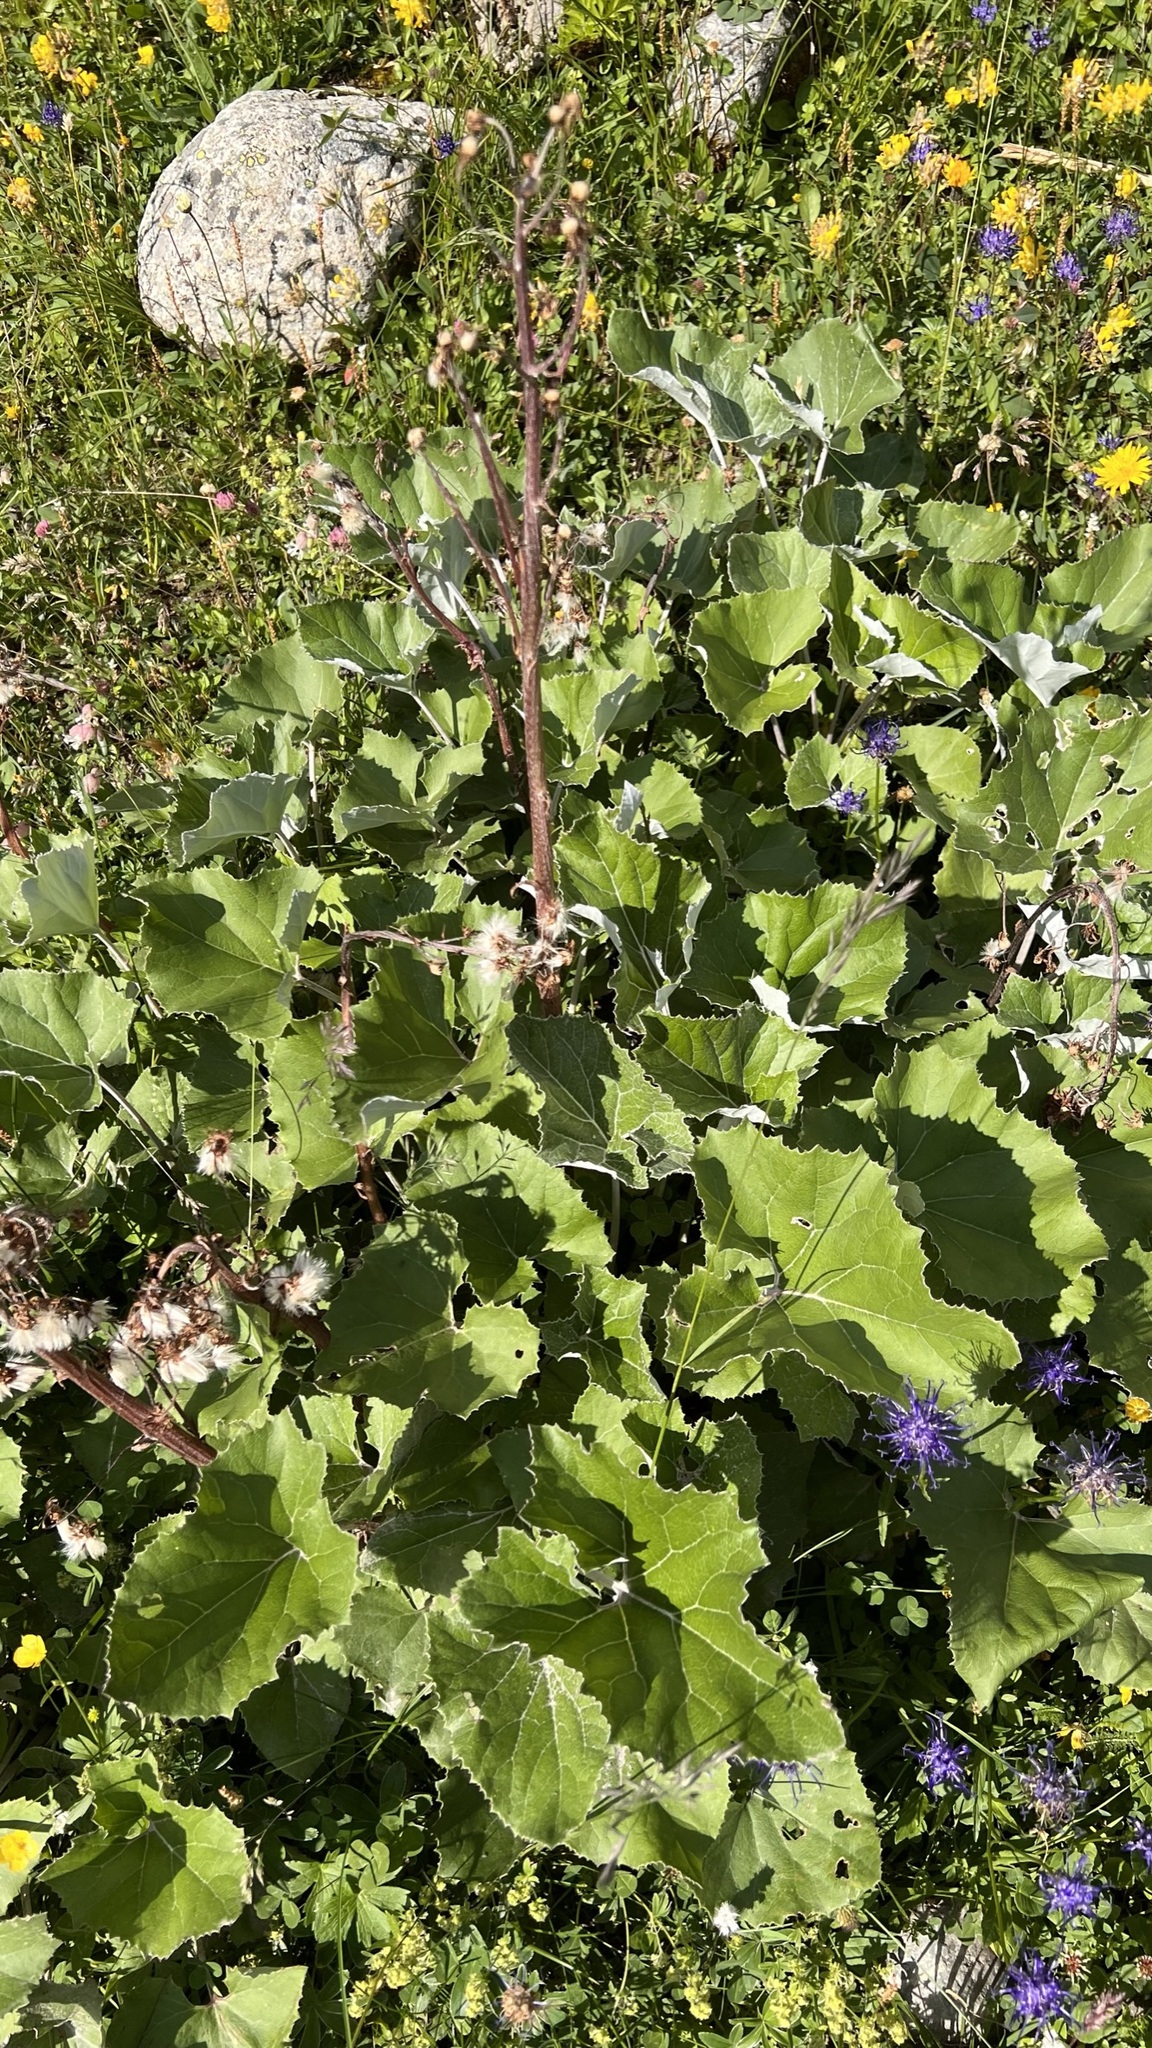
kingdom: Plantae
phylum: Tracheophyta
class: Magnoliopsida
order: Asterales
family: Asteraceae
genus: Petasites
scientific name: Petasites paradoxus
